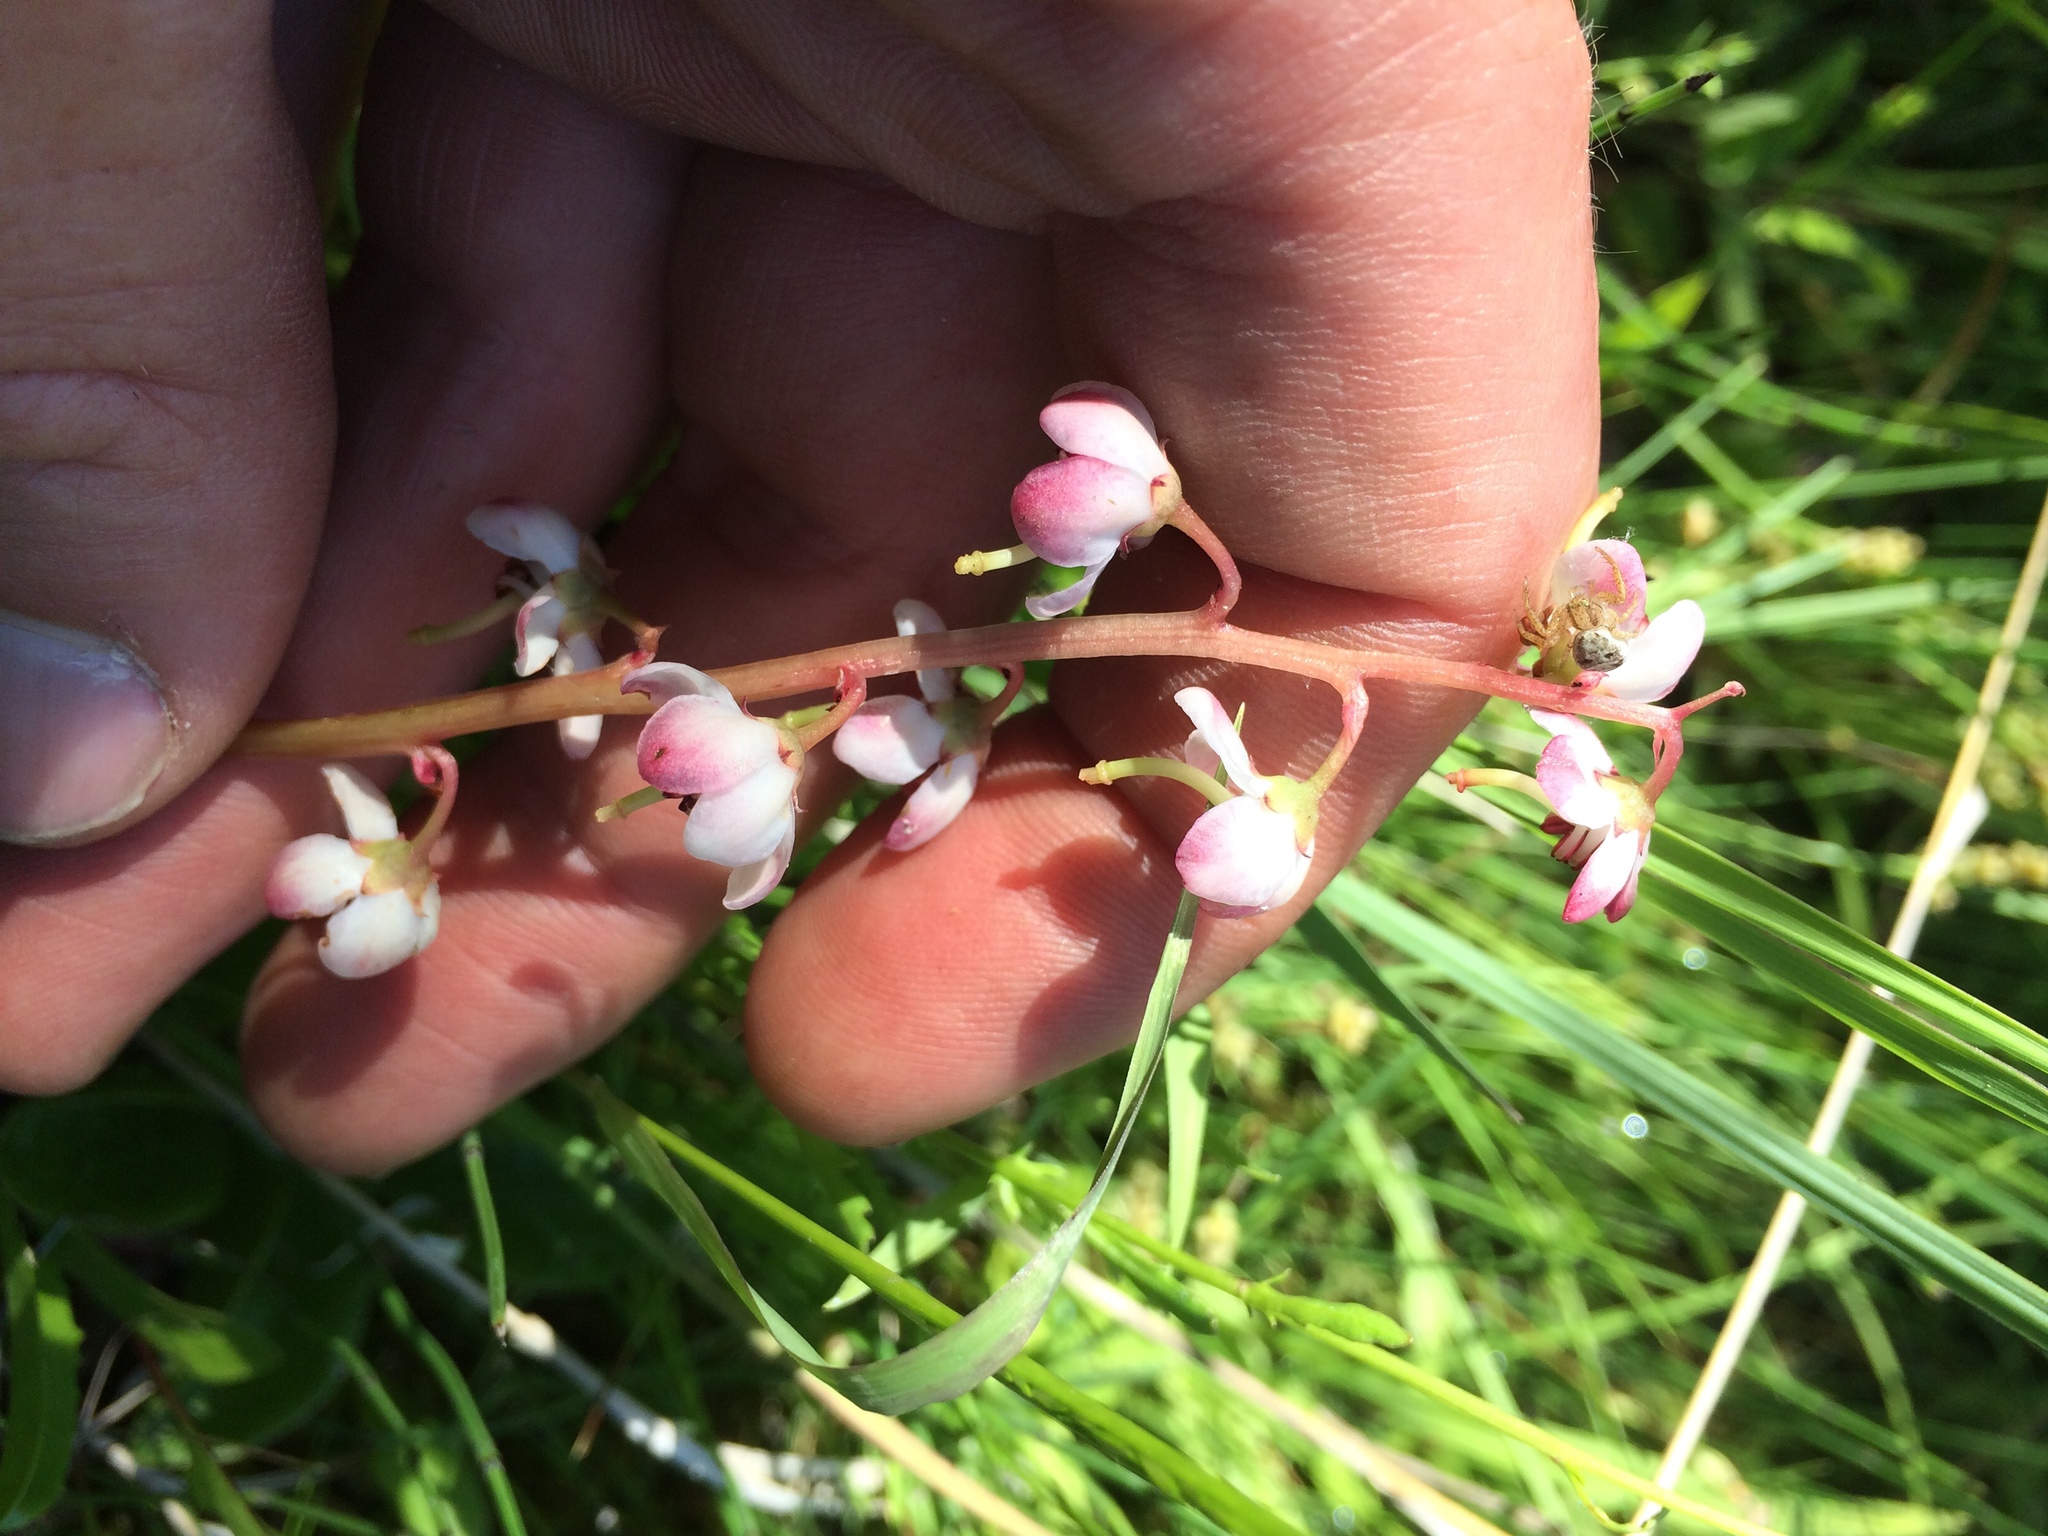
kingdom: Plantae
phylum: Tracheophyta
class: Magnoliopsida
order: Ericales
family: Ericaceae
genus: Pyrola
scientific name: Pyrola asarifolia
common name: Bog wintergreen
